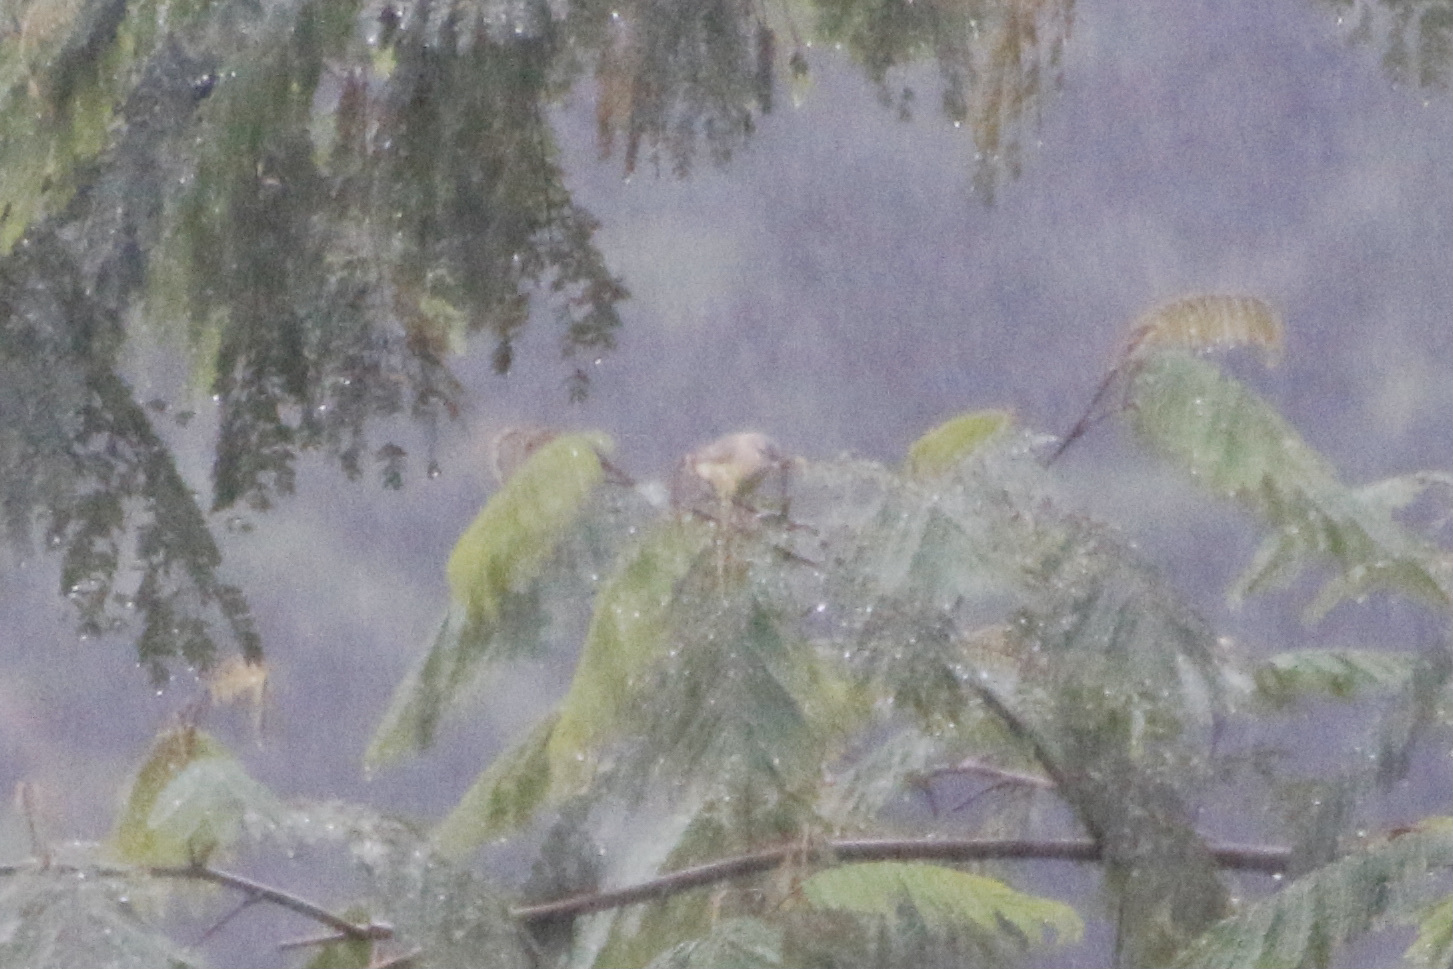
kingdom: Animalia
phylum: Chordata
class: Aves
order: Passeriformes
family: Vireonidae
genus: Vireo
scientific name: Vireo philadelphicus
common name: Philadelphia vireo
